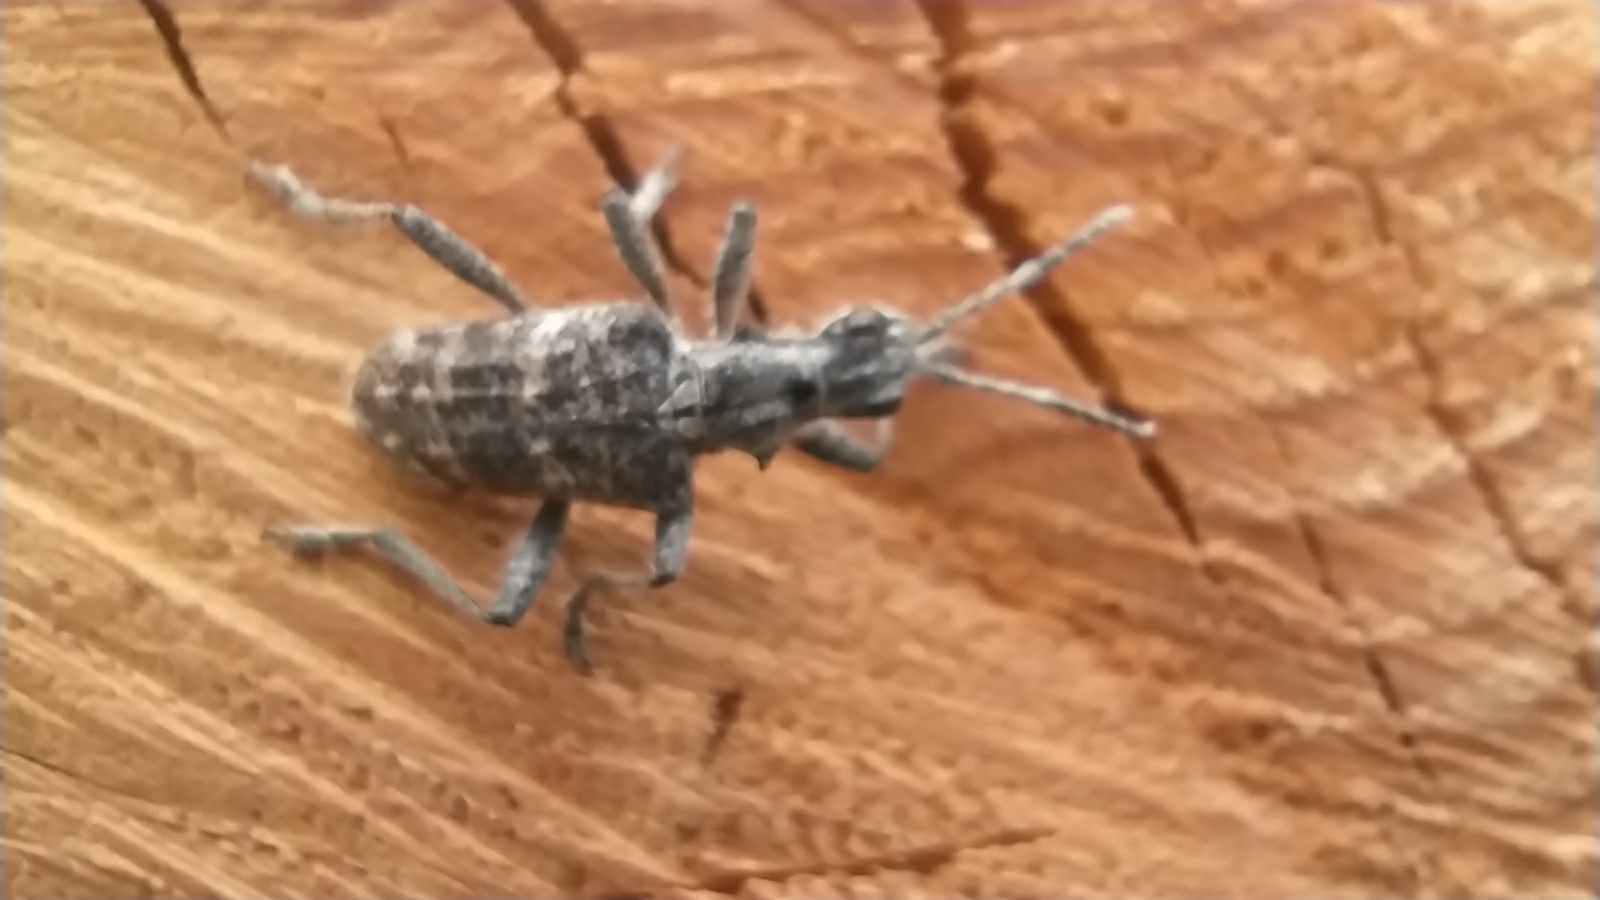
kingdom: Animalia
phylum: Arthropoda
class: Insecta
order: Coleoptera
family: Cerambycidae
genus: Rhagium
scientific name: Rhagium inquisitor
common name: Ribbed pine borer
